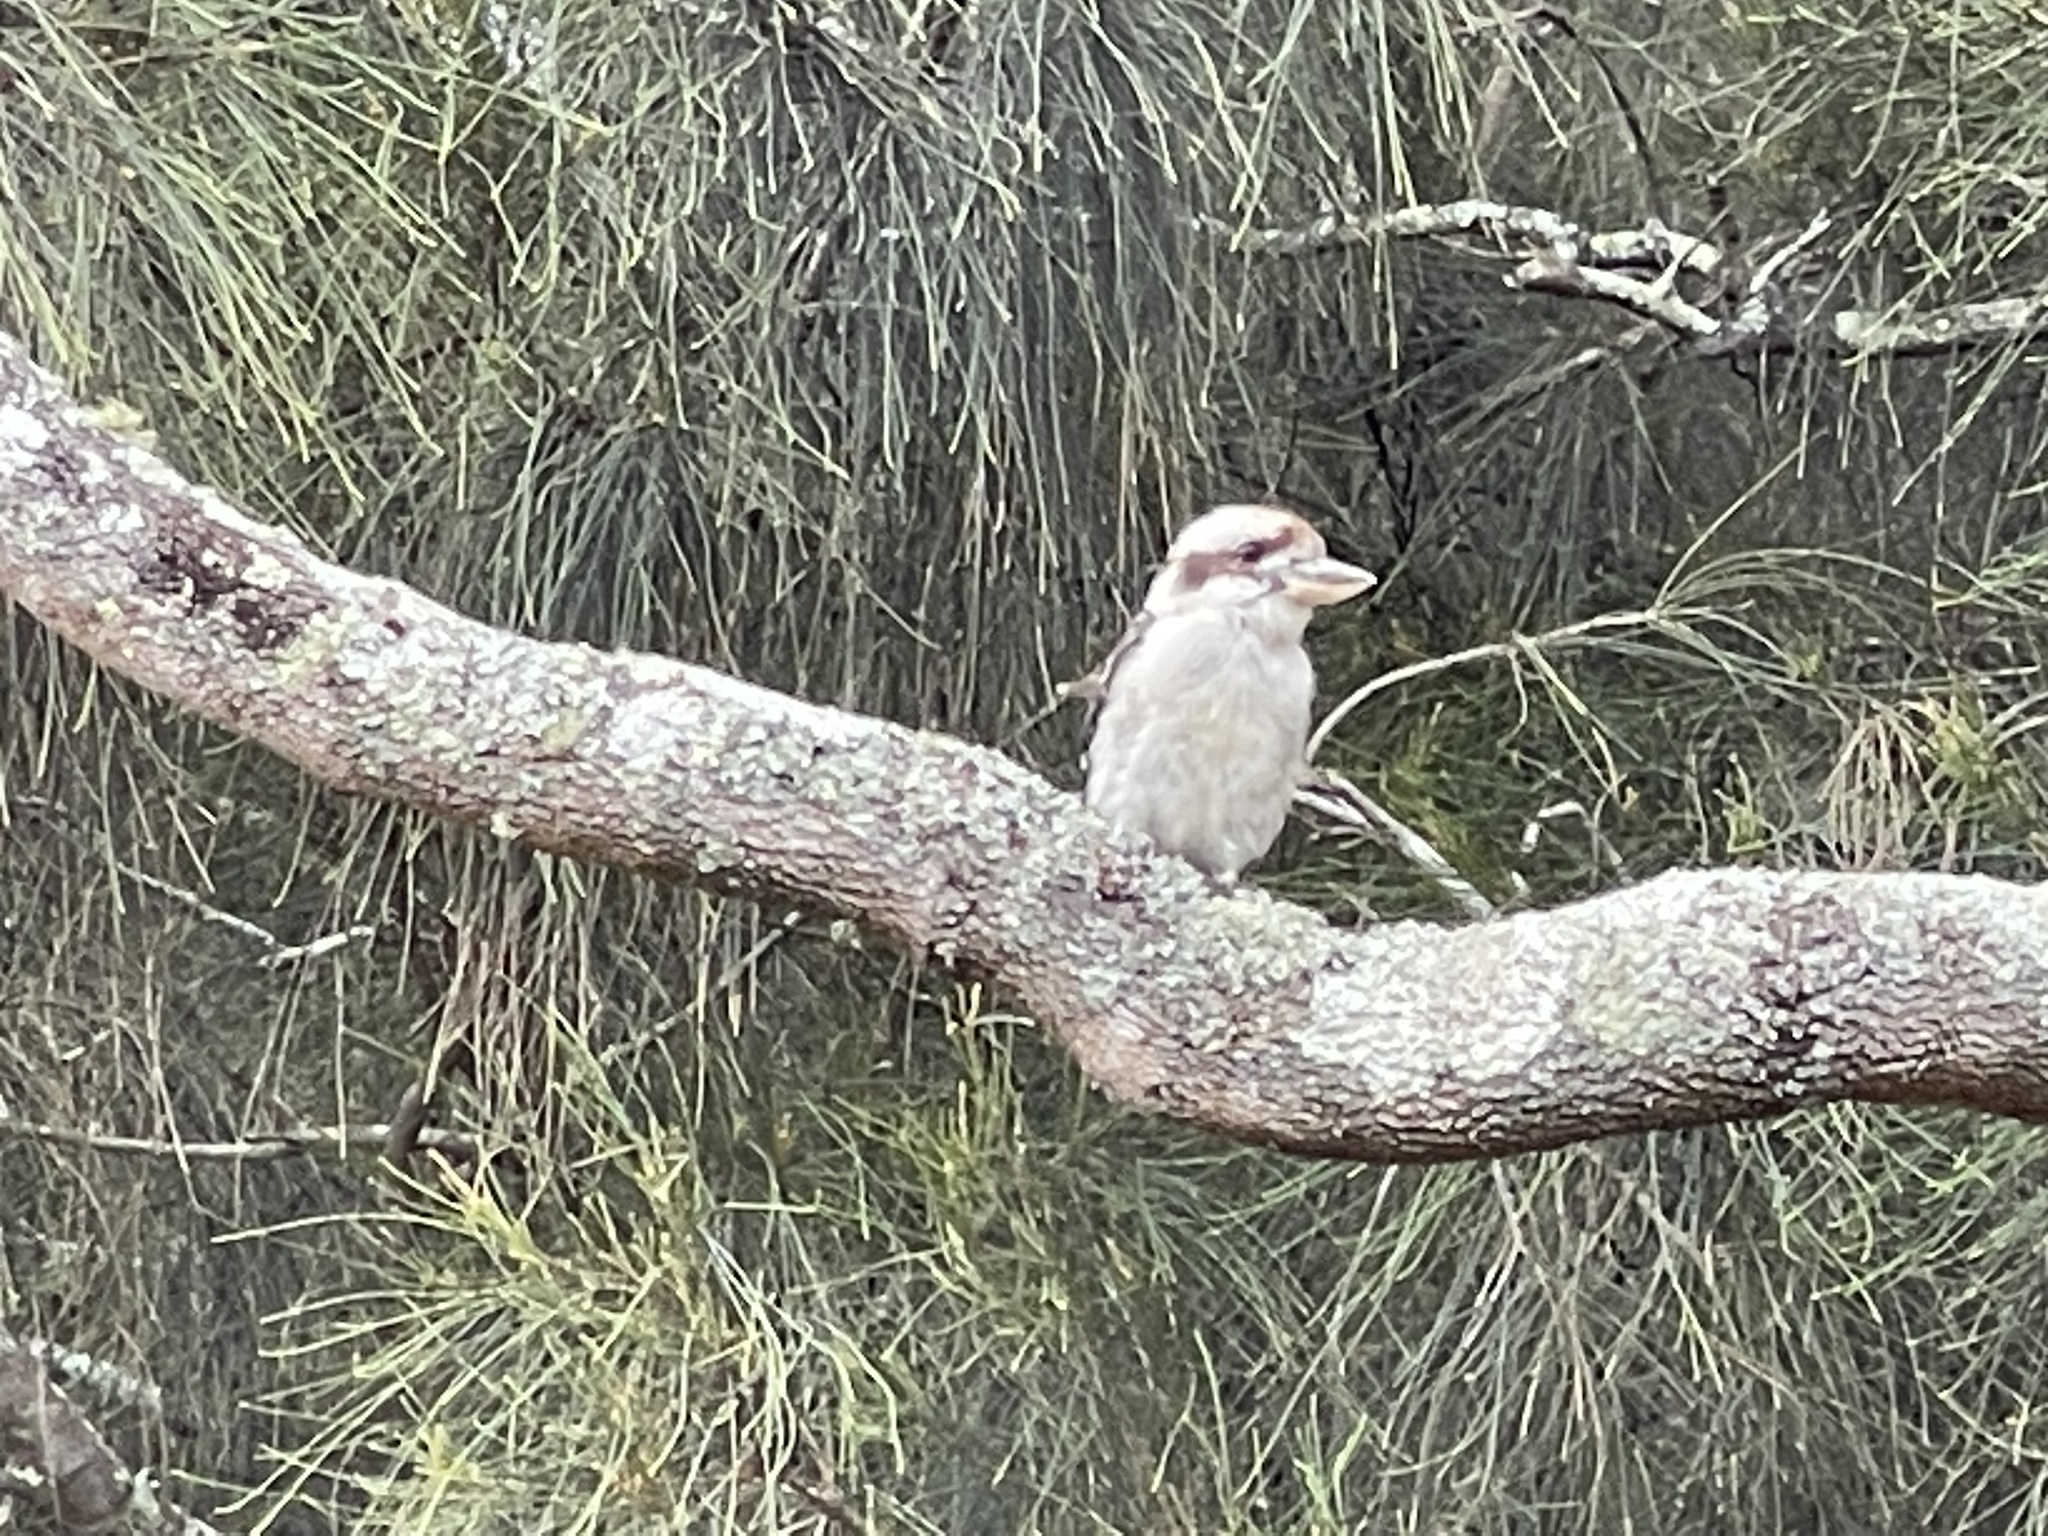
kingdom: Animalia
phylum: Chordata
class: Aves
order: Coraciiformes
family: Alcedinidae
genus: Dacelo
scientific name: Dacelo novaeguineae
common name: Laughing kookaburra
